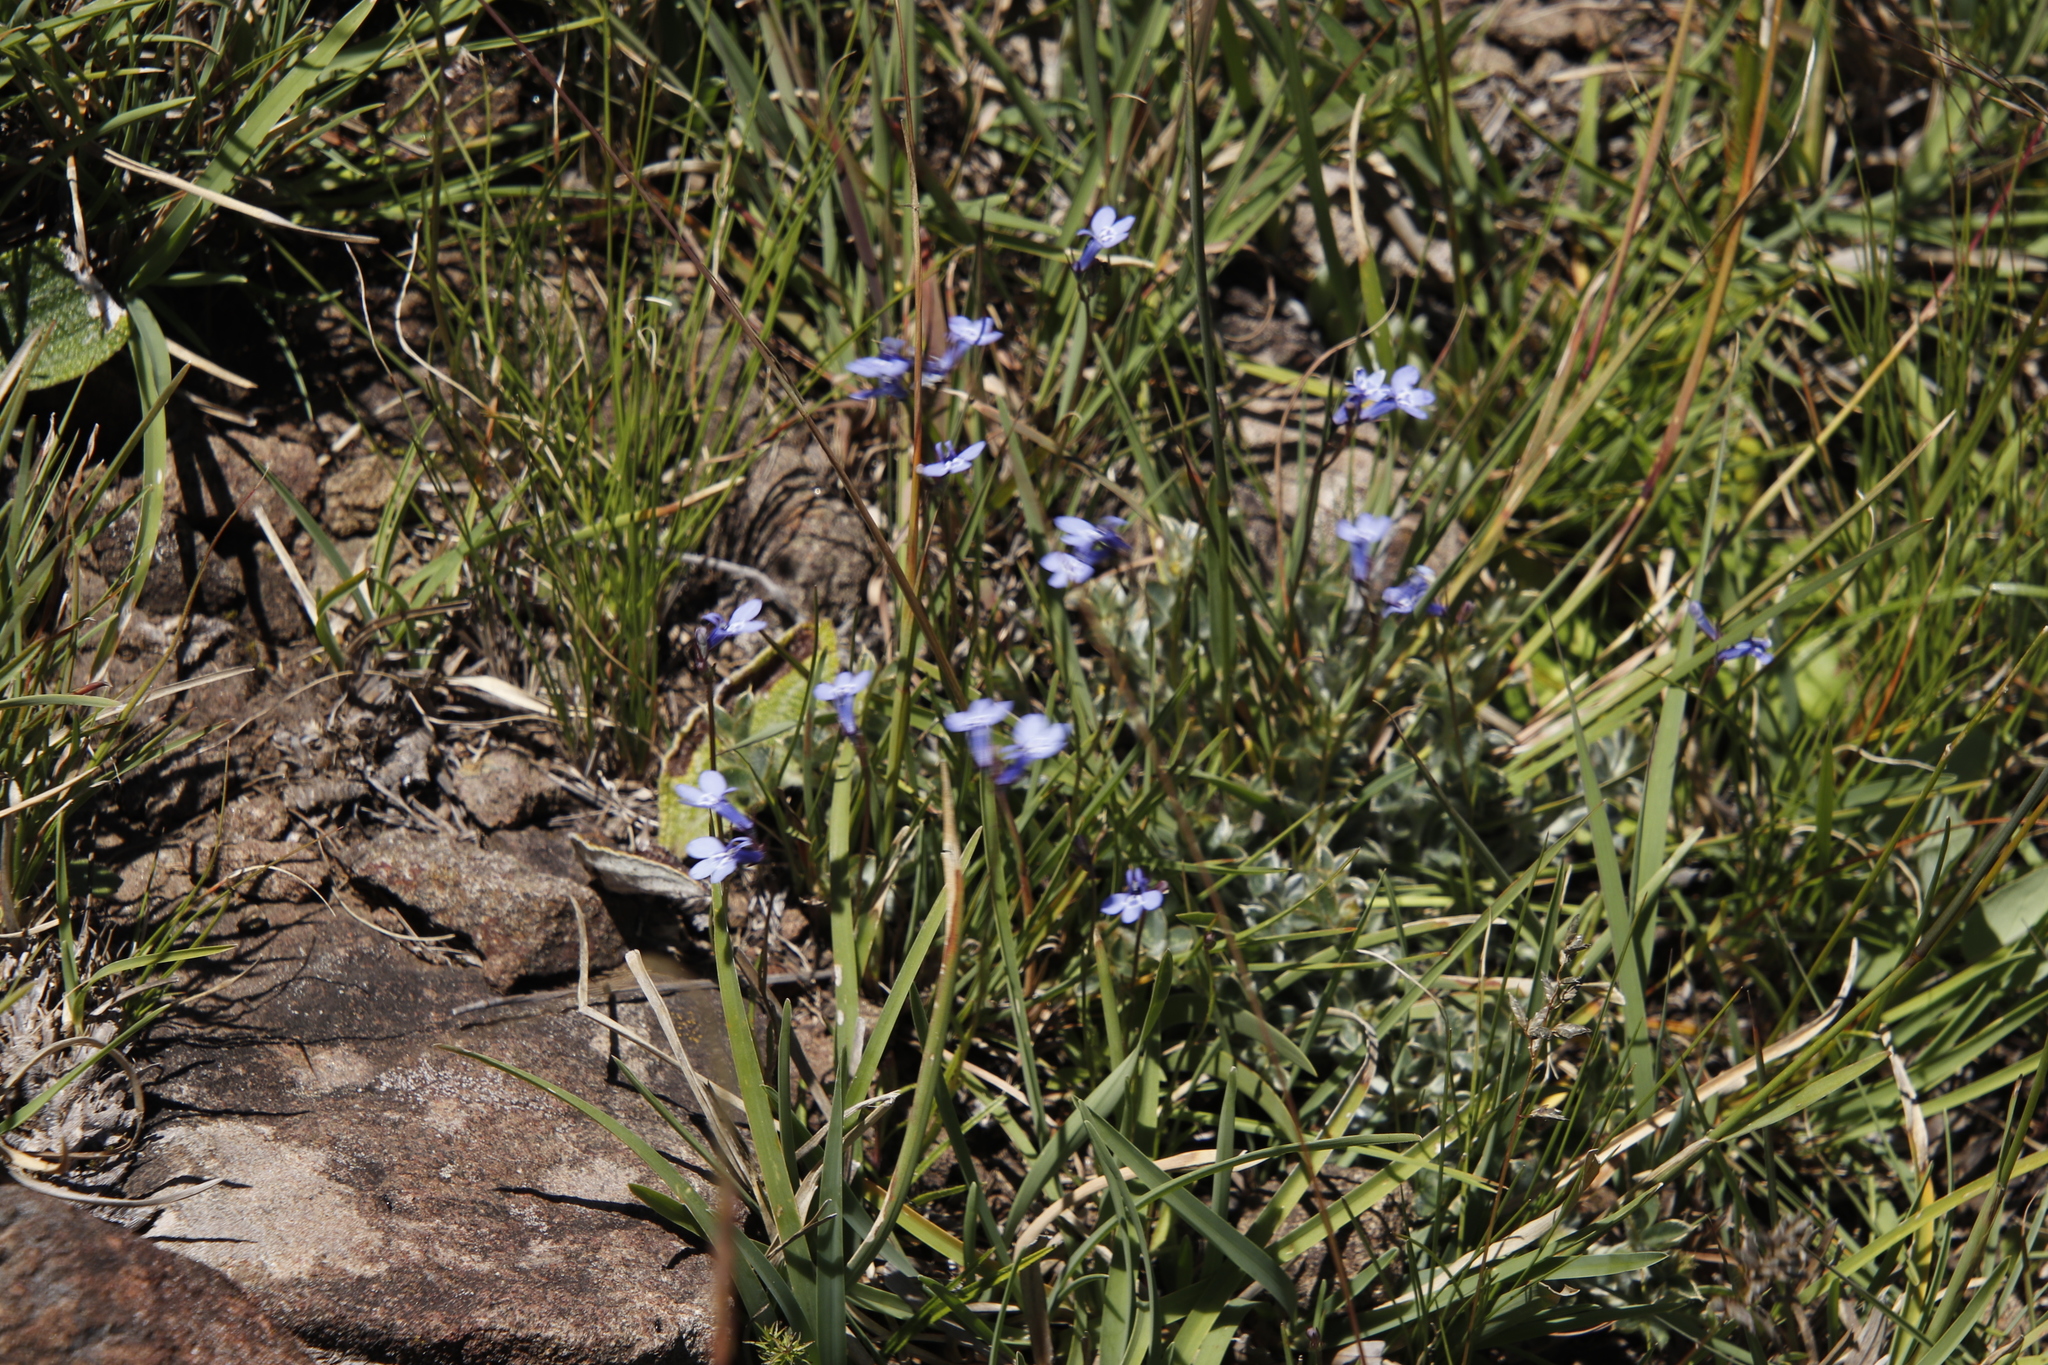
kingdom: Plantae
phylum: Tracheophyta
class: Magnoliopsida
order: Asterales
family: Campanulaceae
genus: Lobelia
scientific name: Lobelia flaccida
